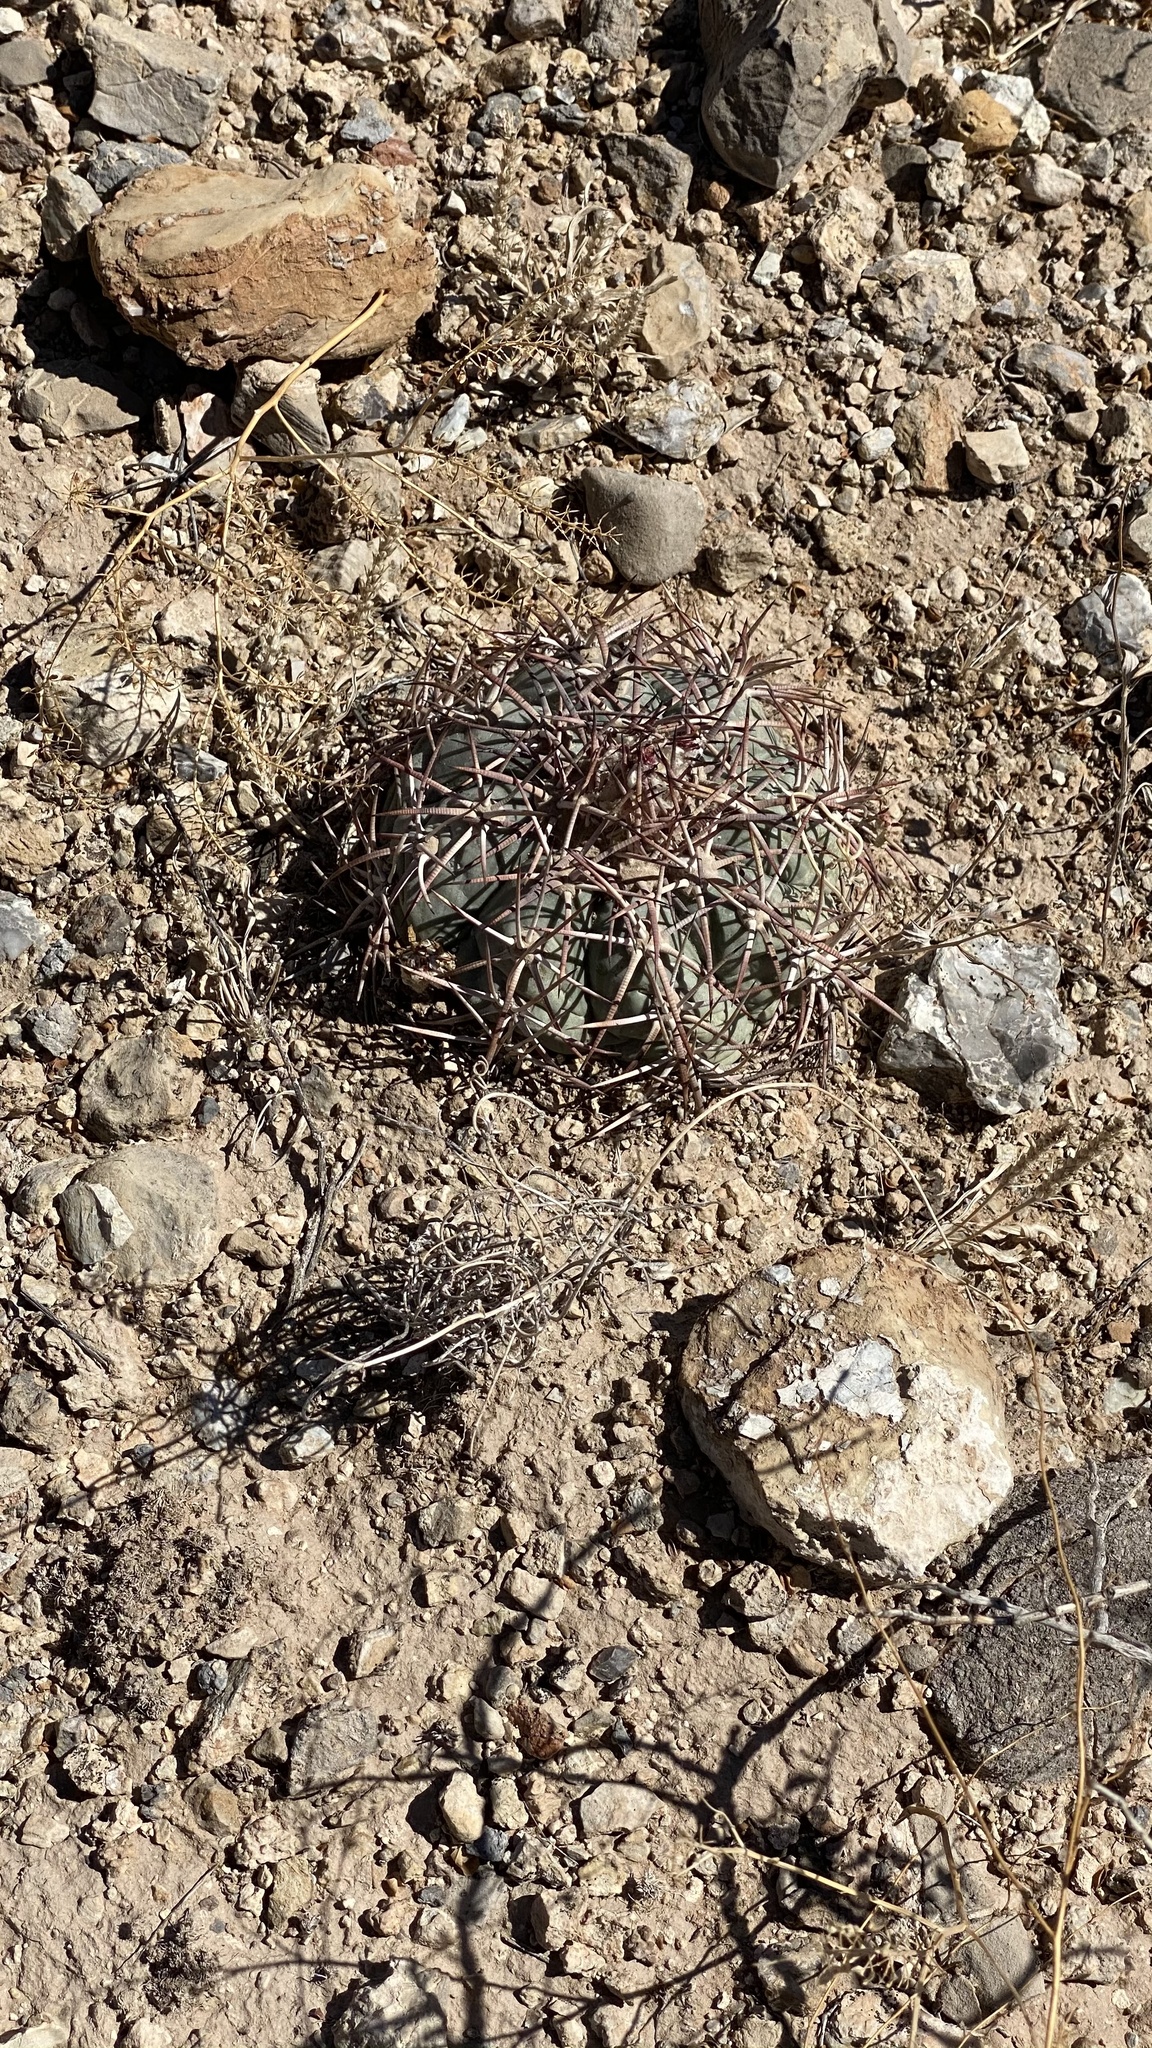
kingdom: Plantae
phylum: Tracheophyta
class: Magnoliopsida
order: Caryophyllales
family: Cactaceae
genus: Echinocactus
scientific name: Echinocactus horizonthalonius
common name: Devilshead
